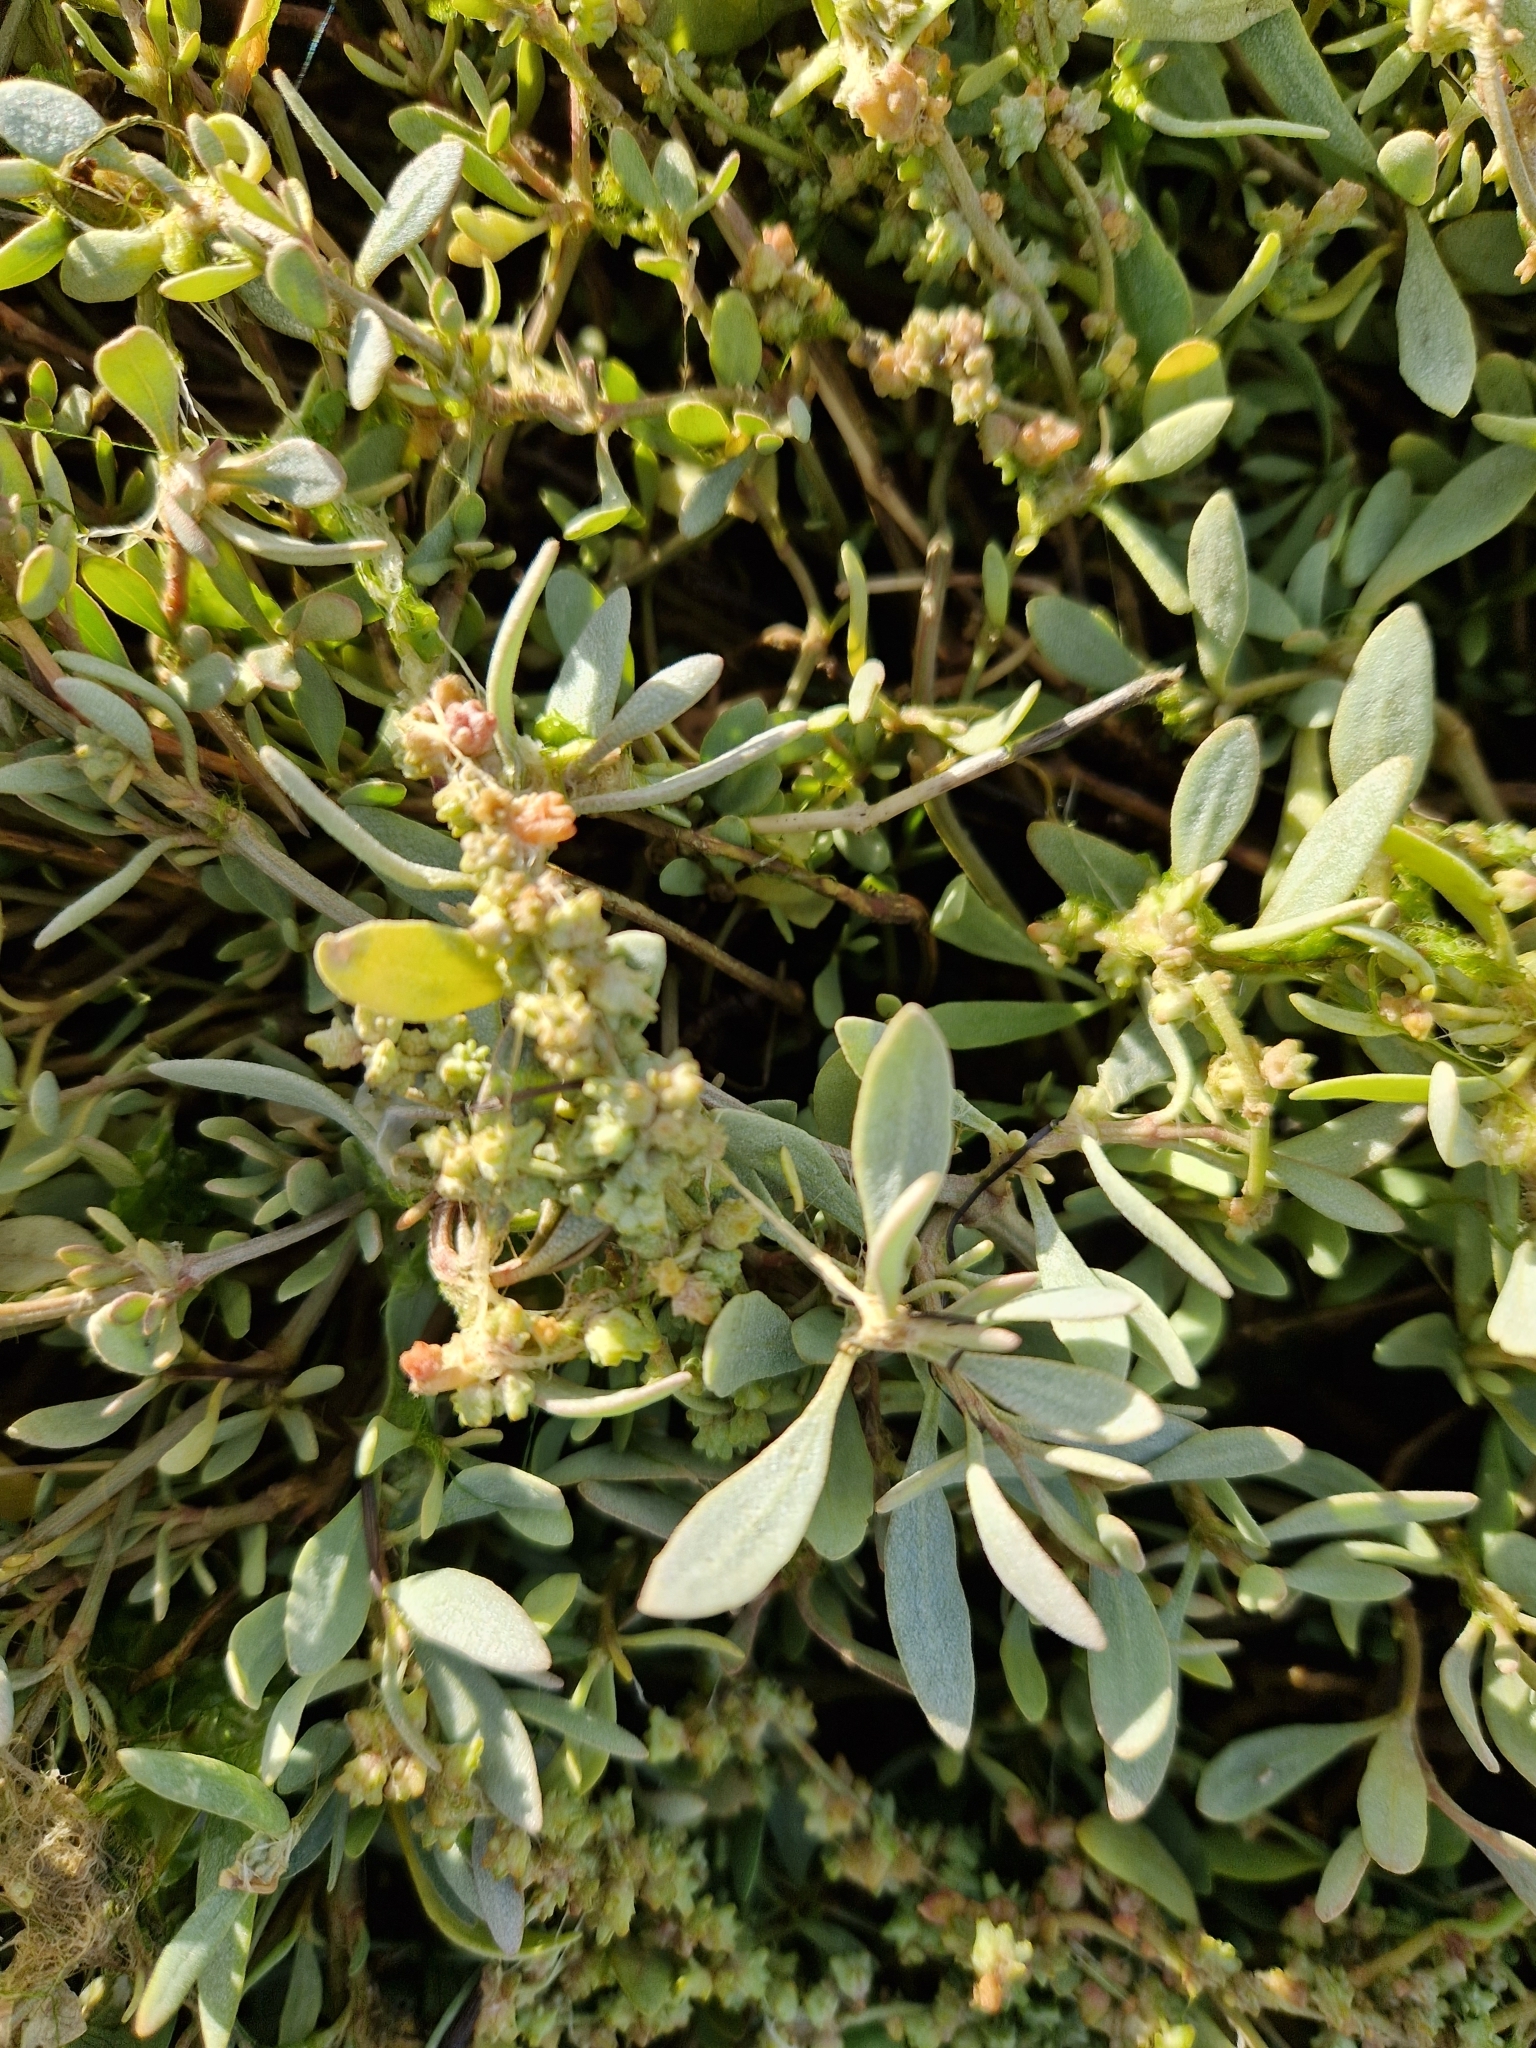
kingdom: Plantae
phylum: Tracheophyta
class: Magnoliopsida
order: Caryophyllales
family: Amaranthaceae
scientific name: Amaranthaceae
